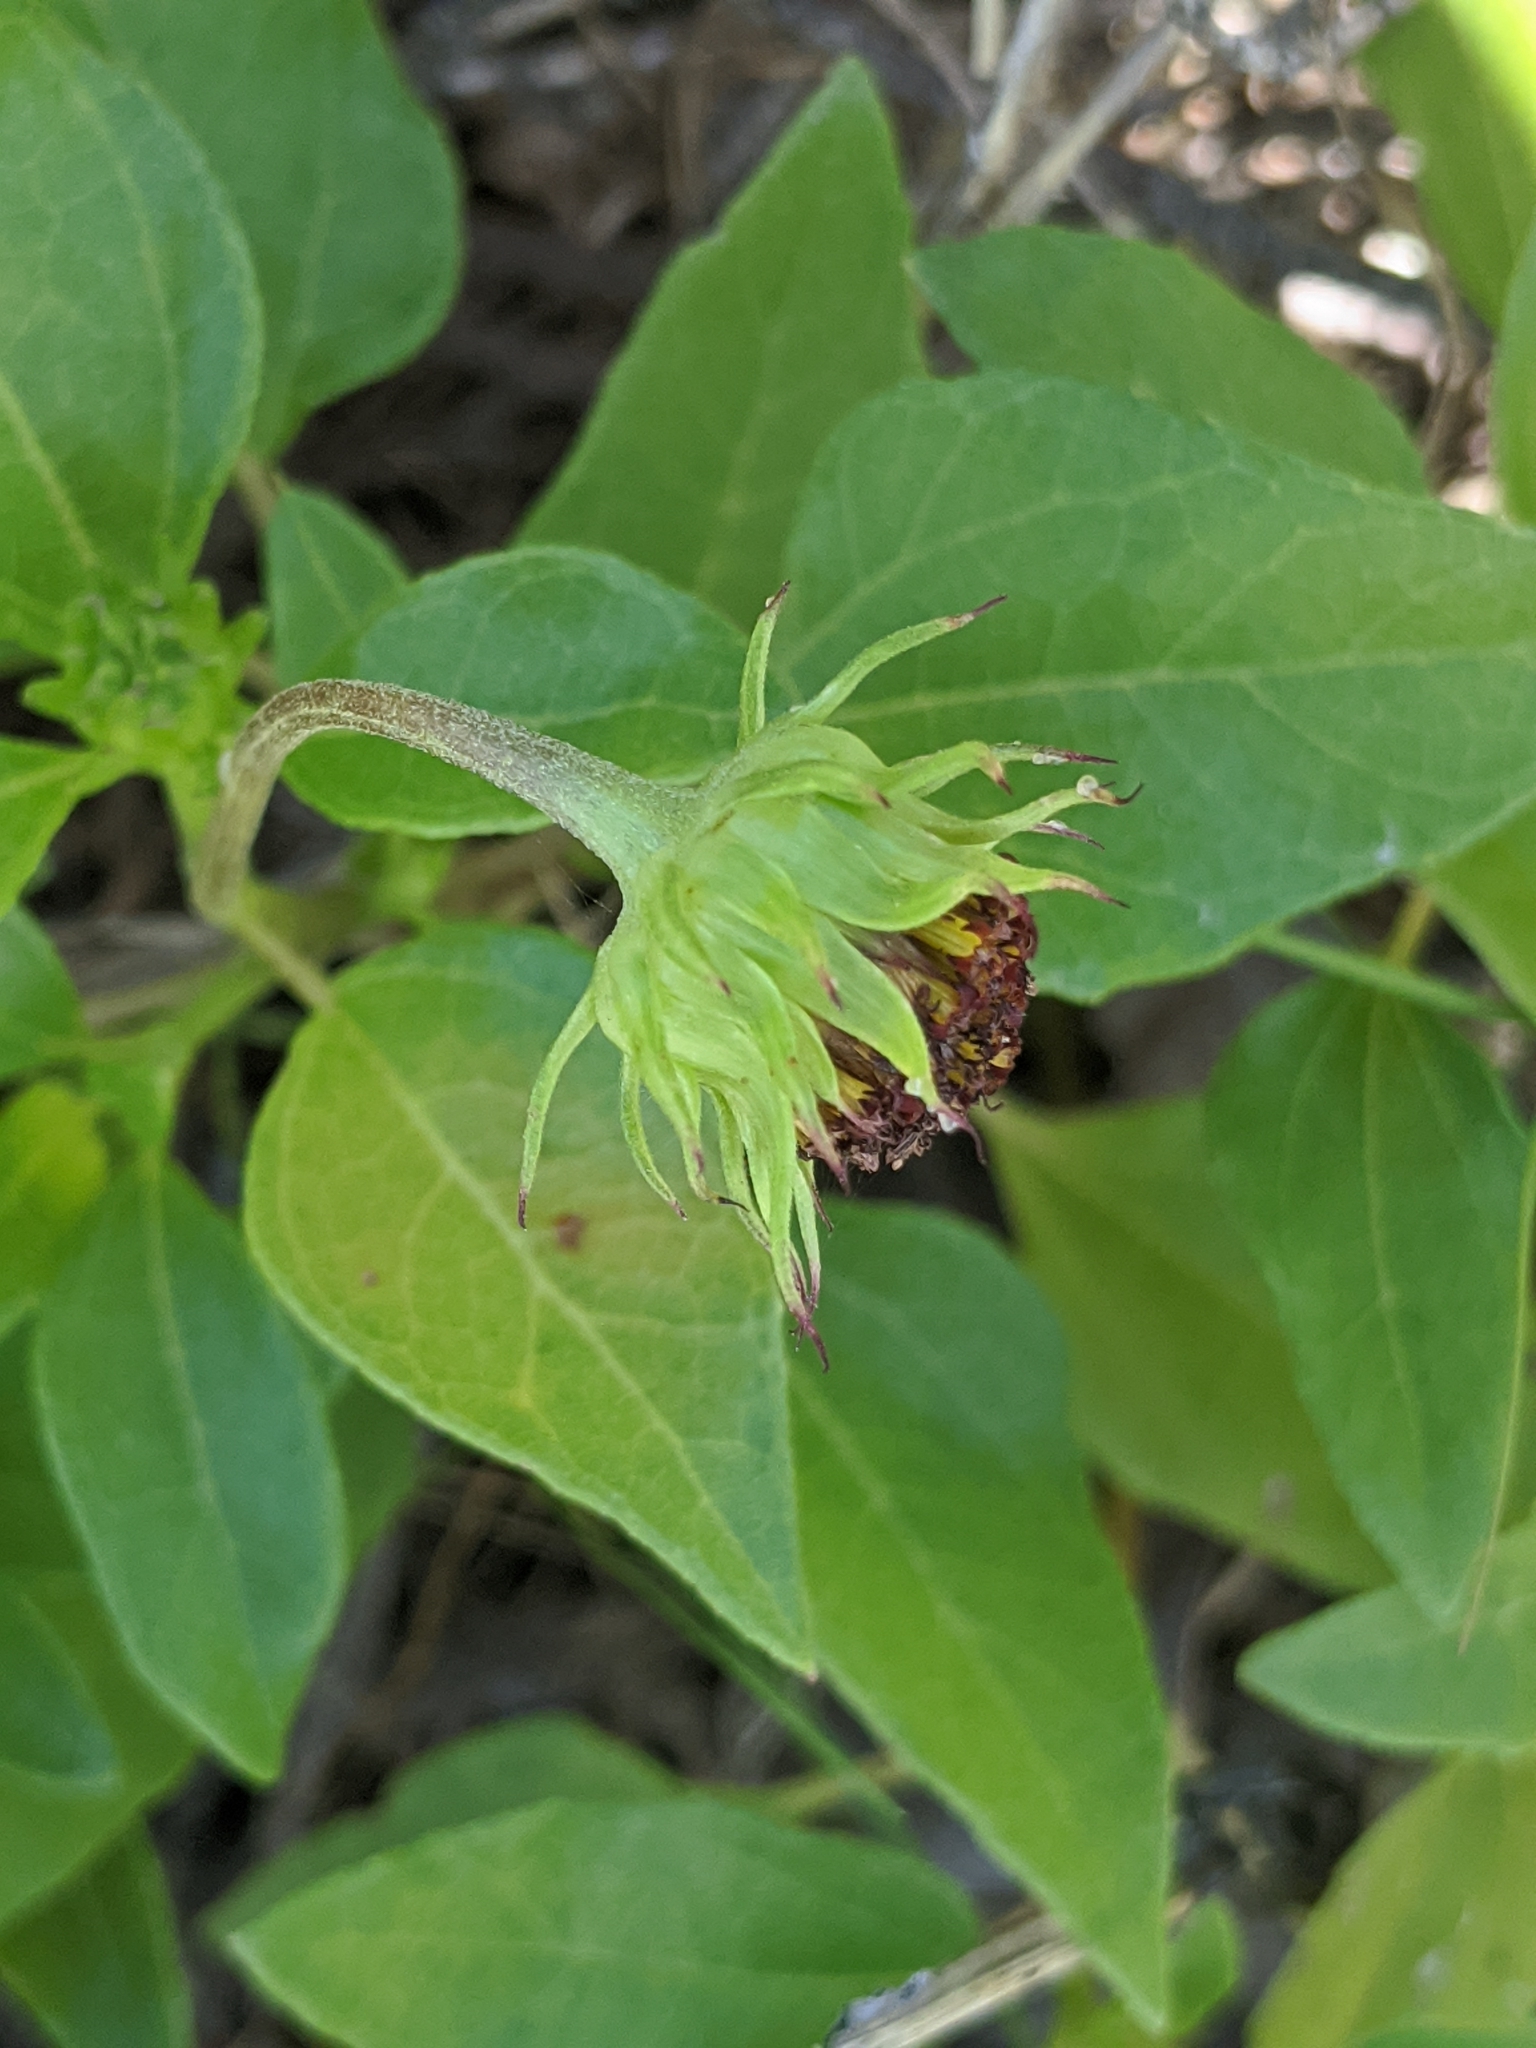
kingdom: Plantae
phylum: Tracheophyta
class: Magnoliopsida
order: Asterales
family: Asteraceae
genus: Helianthus
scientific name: Helianthus debilis
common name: Weak sunflower
